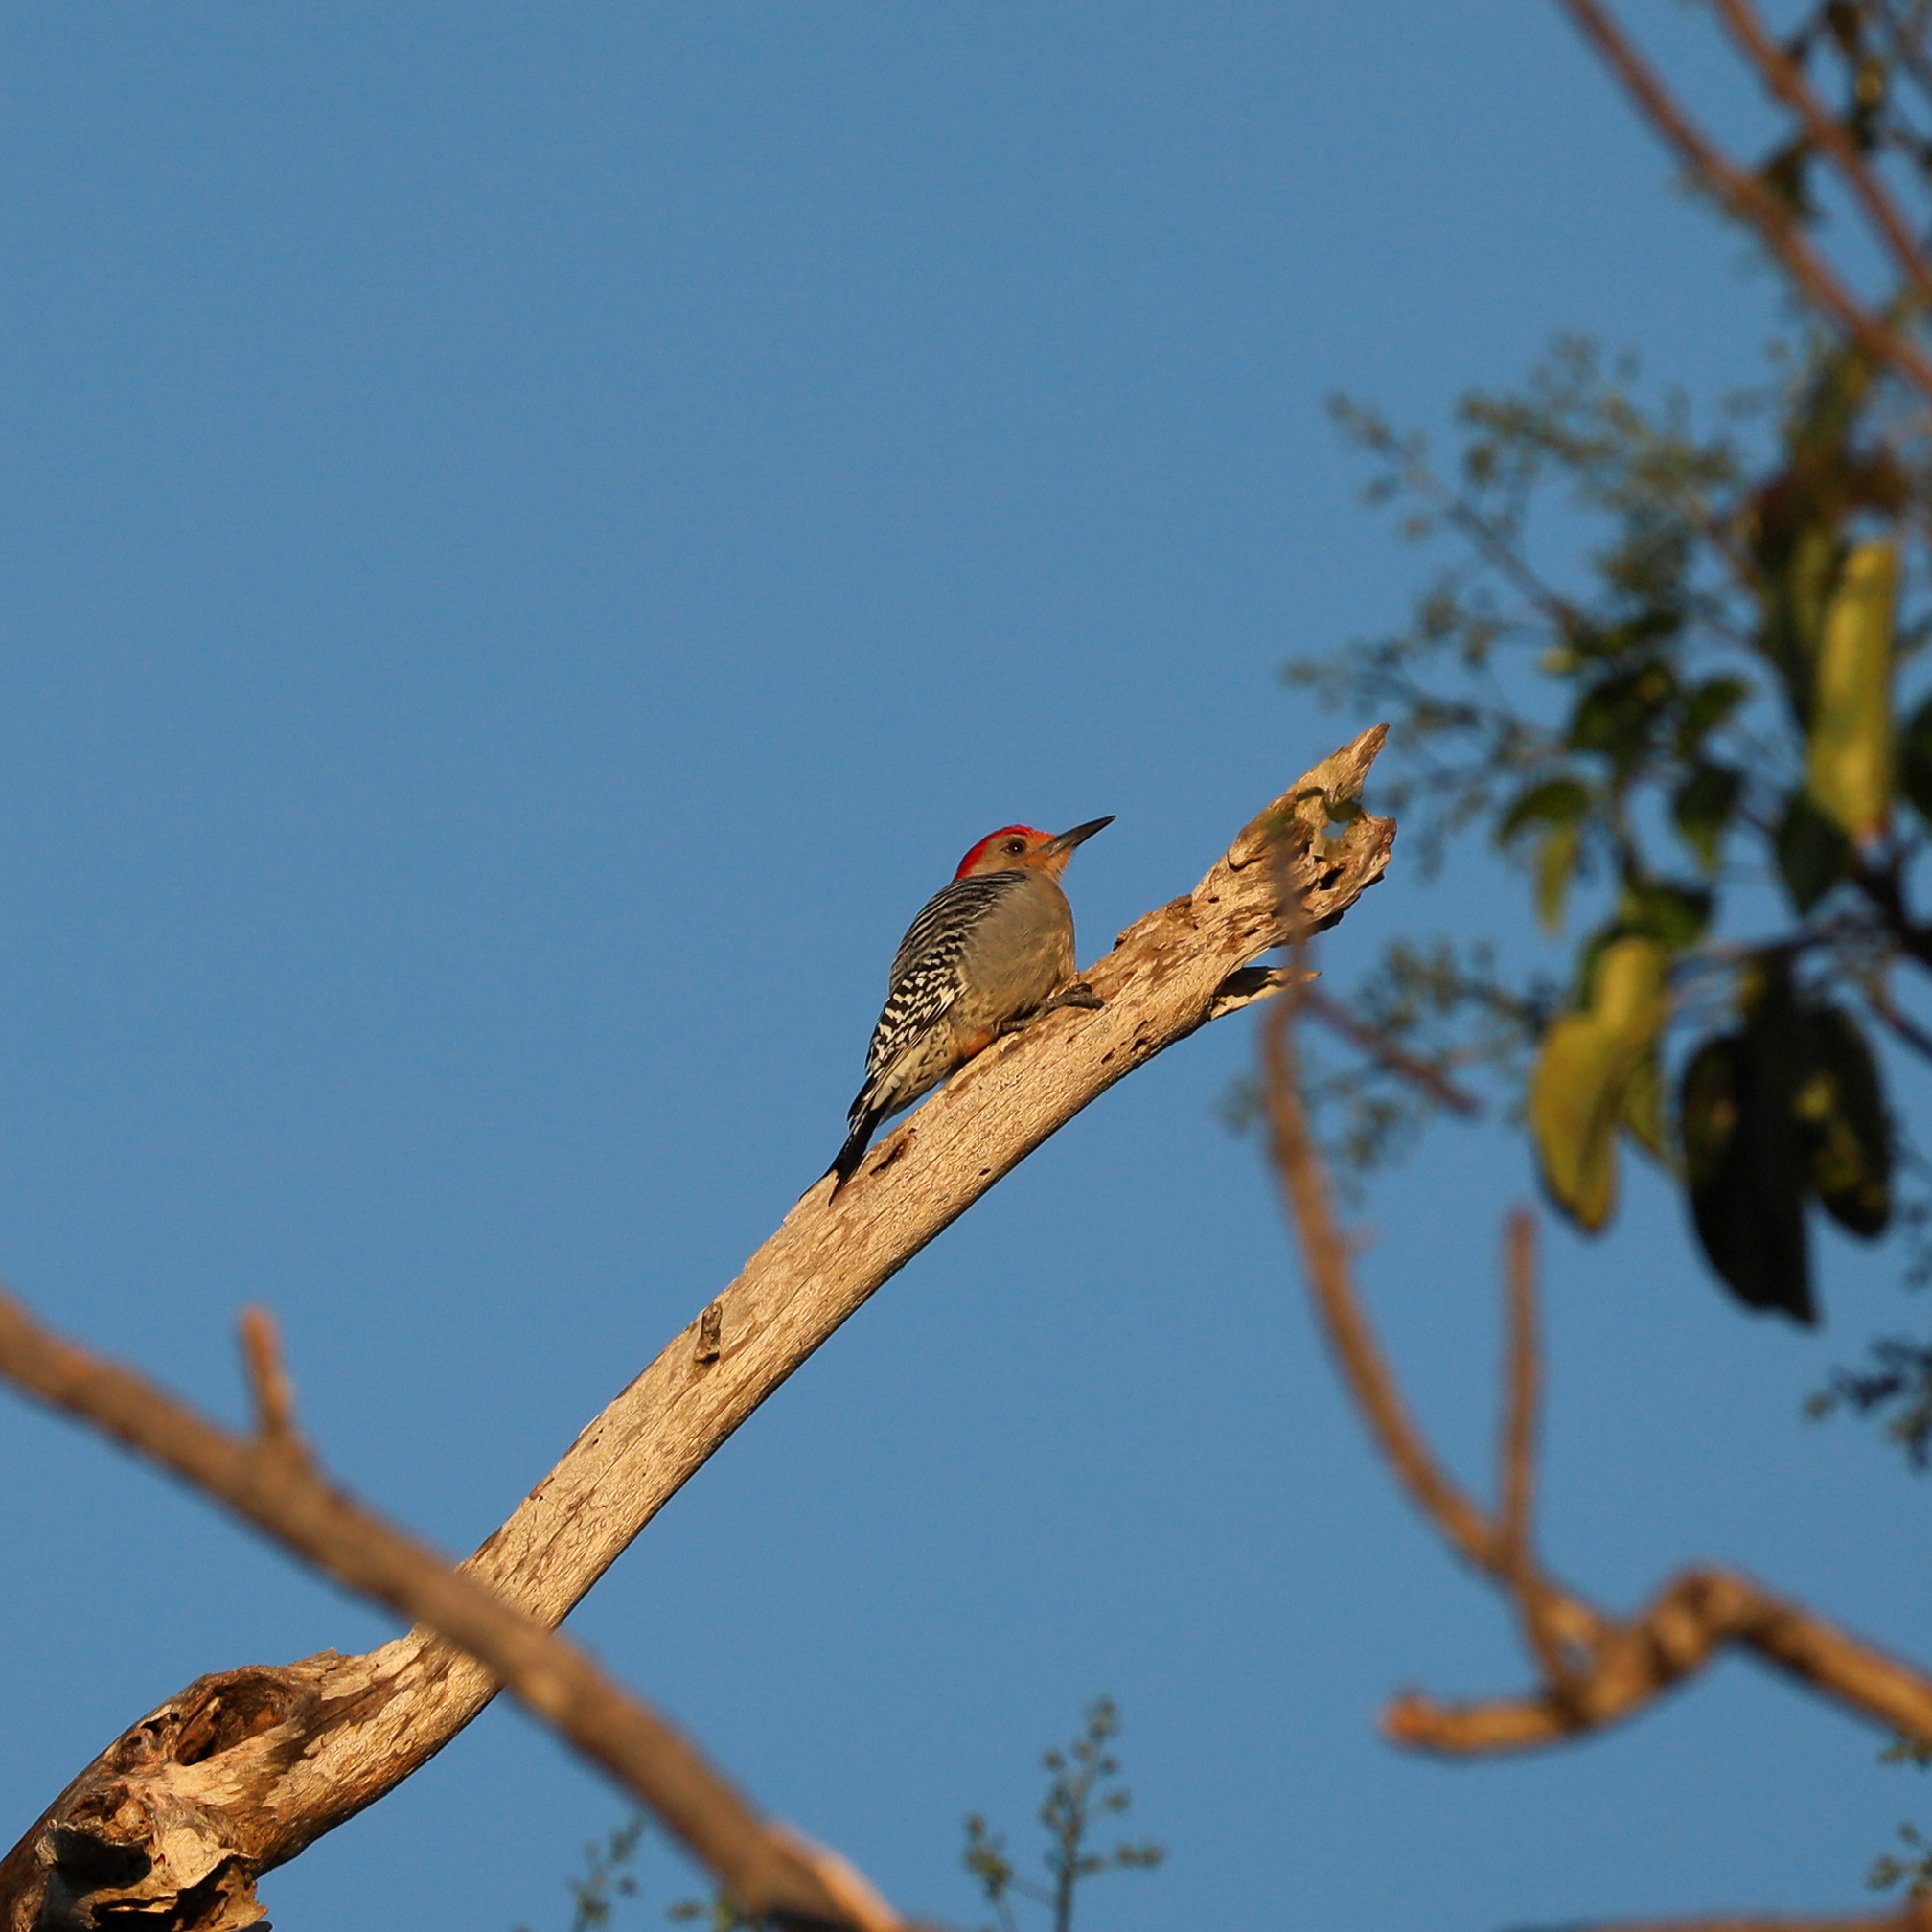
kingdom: Animalia
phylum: Chordata
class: Aves
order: Piciformes
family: Picidae
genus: Melanerpes
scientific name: Melanerpes carolinus
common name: Red-bellied woodpecker
